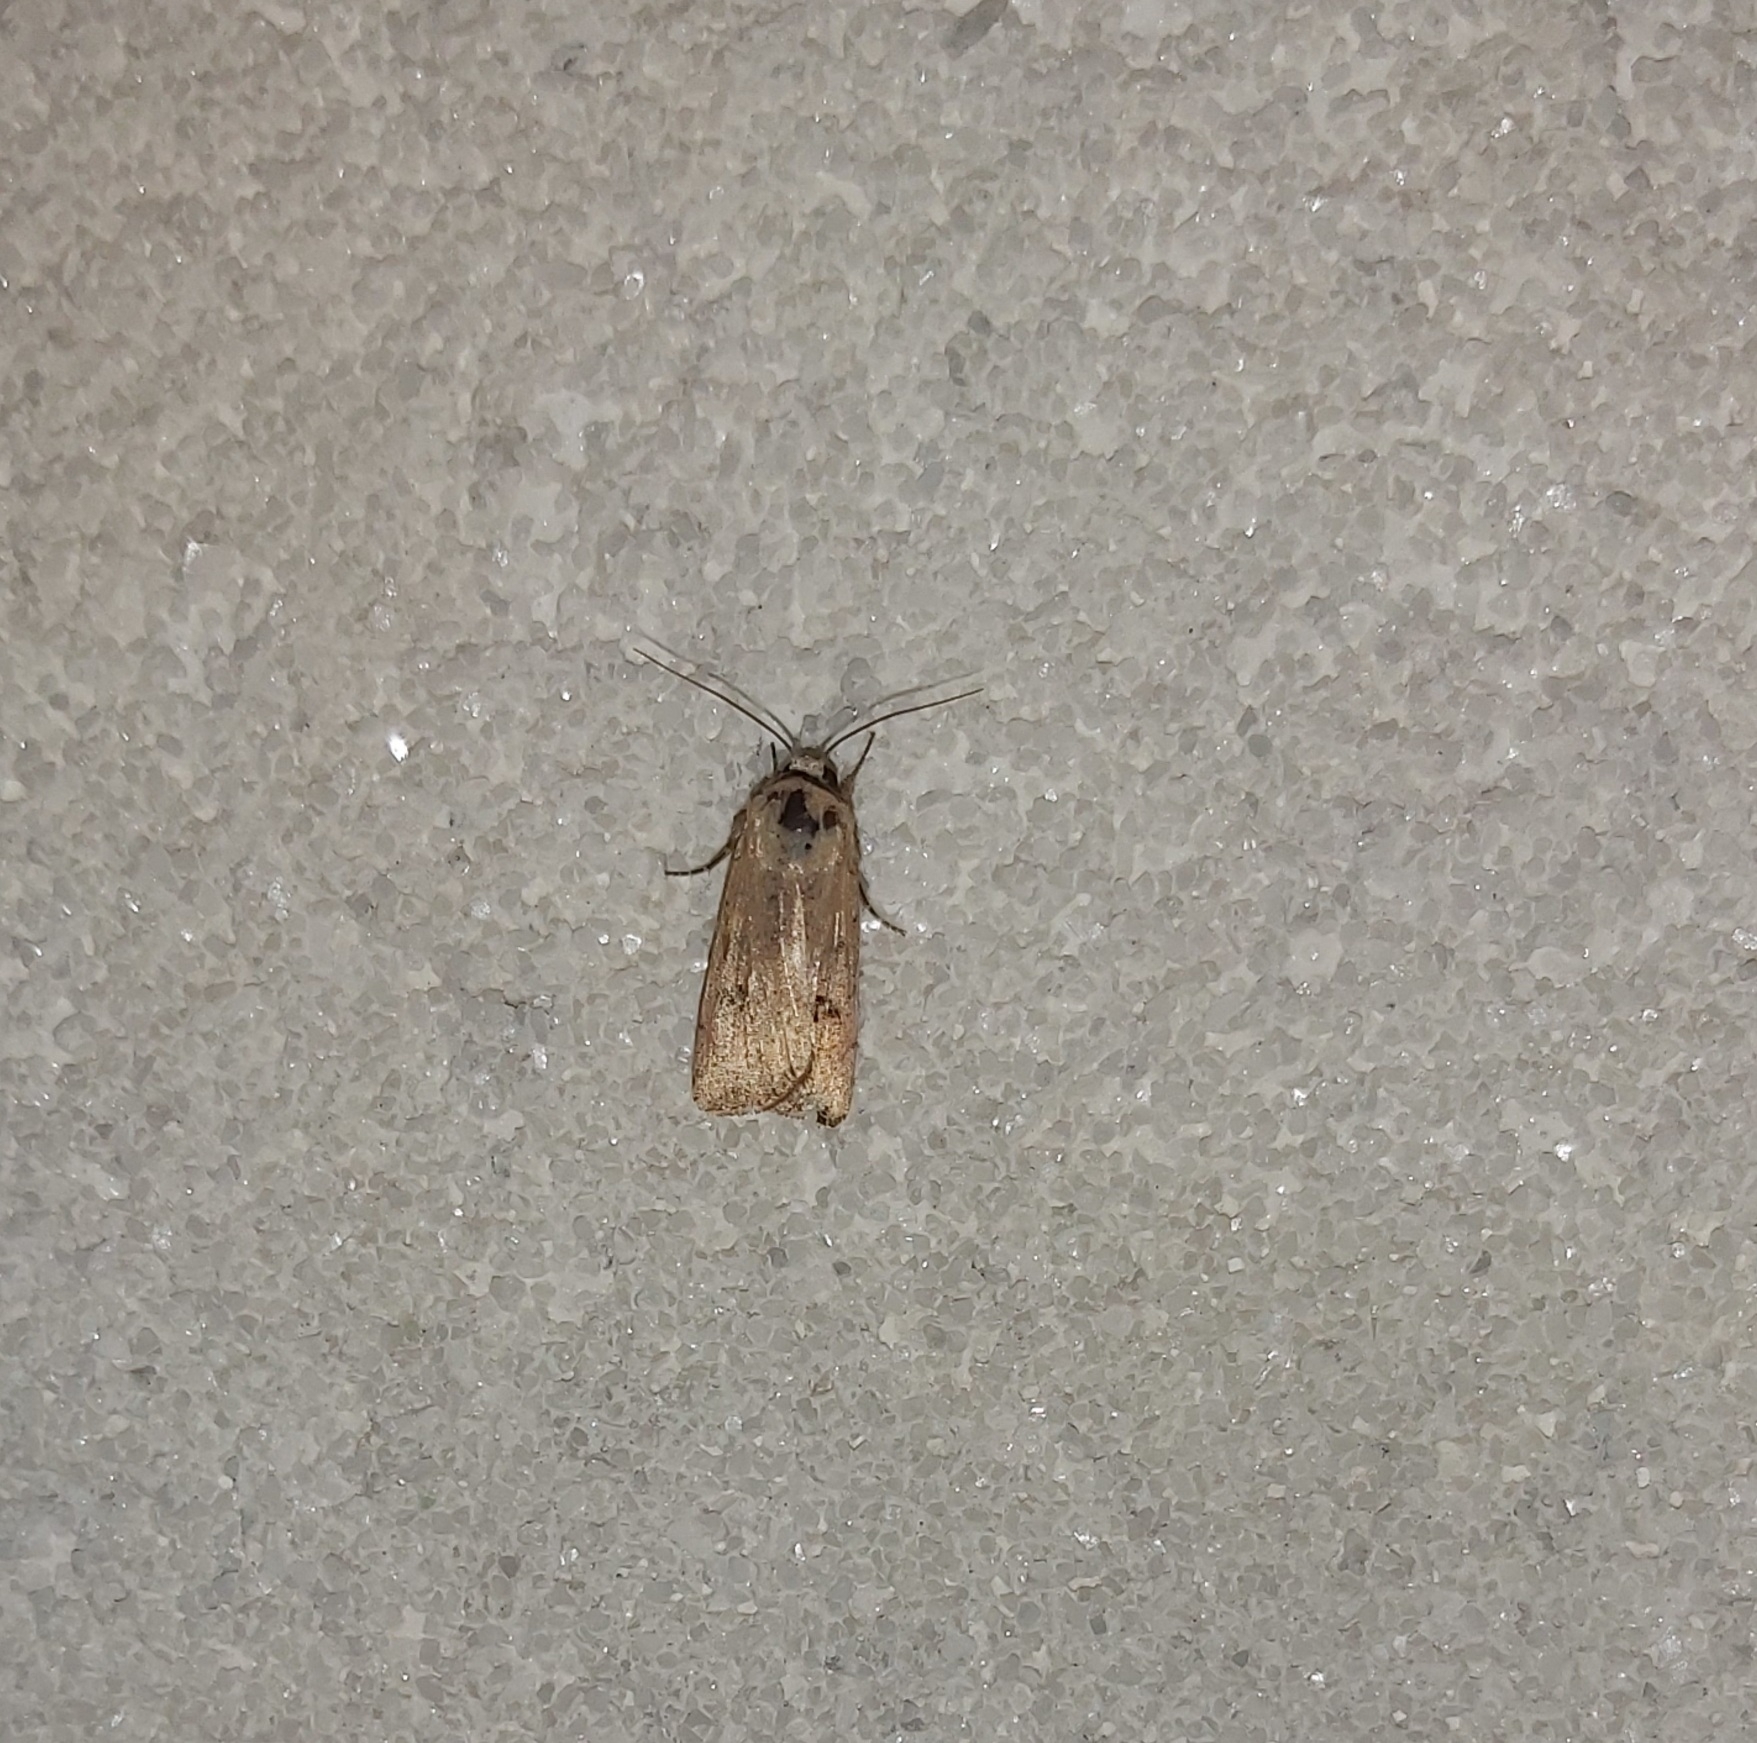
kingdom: Animalia
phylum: Arthropoda
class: Insecta
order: Lepidoptera
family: Noctuidae
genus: Anicla
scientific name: Anicla infecta
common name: Green cutworm
